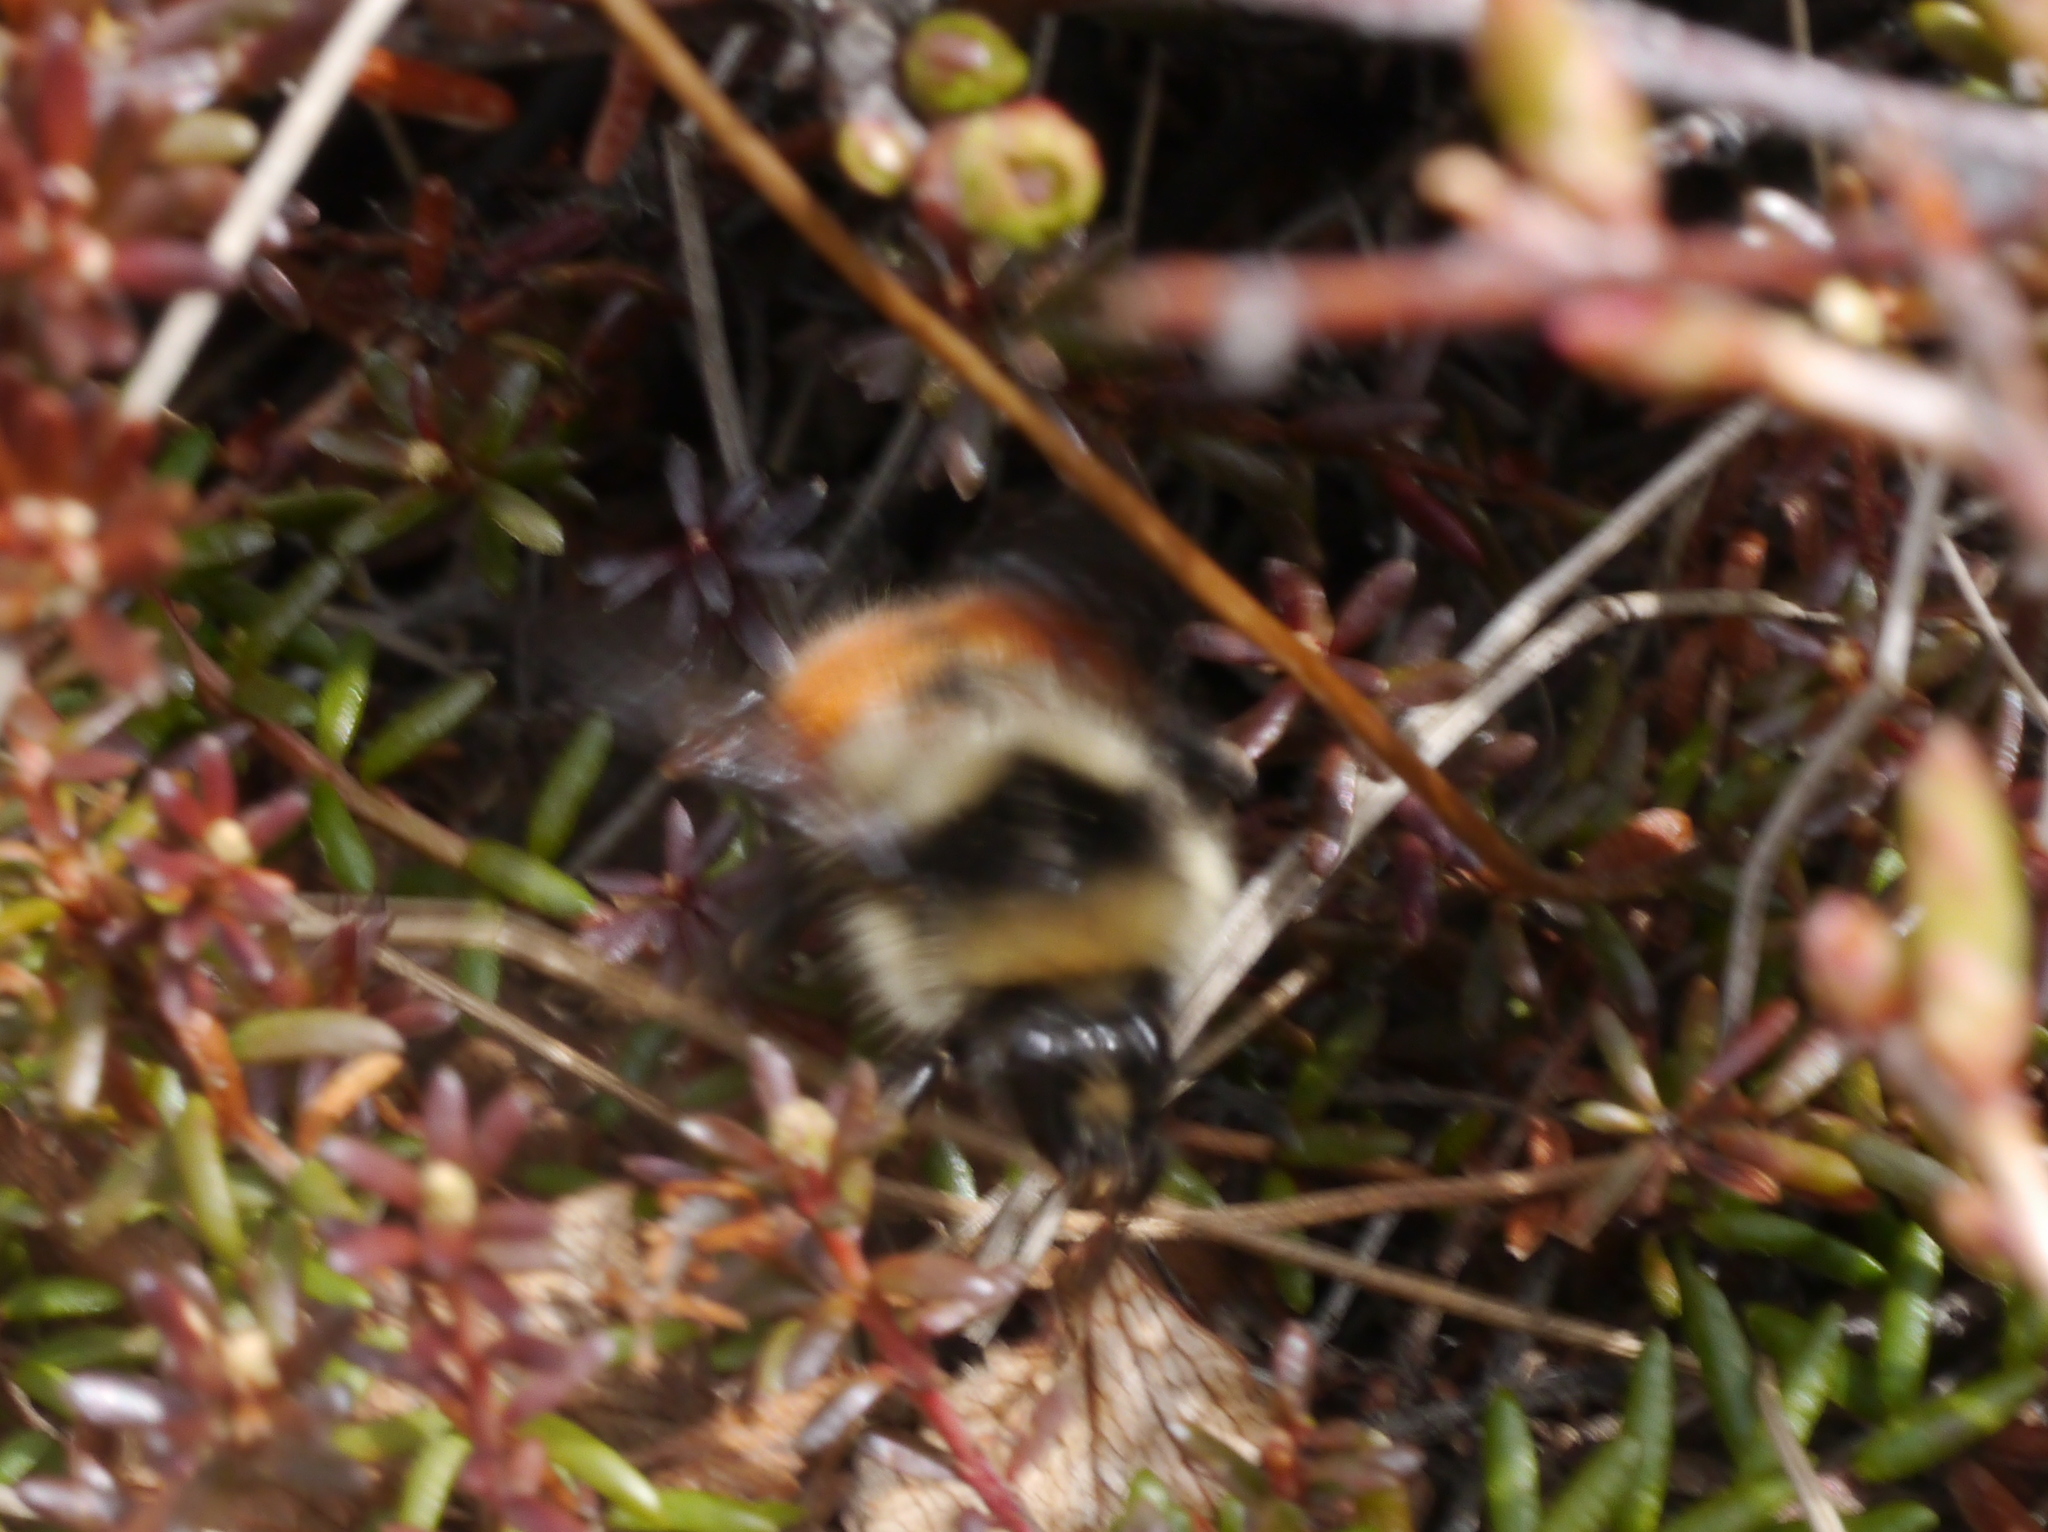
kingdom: Animalia
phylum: Arthropoda
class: Insecta
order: Hymenoptera
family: Apidae
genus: Bombus
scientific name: Bombus sylvicola
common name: Forest bumble bee
